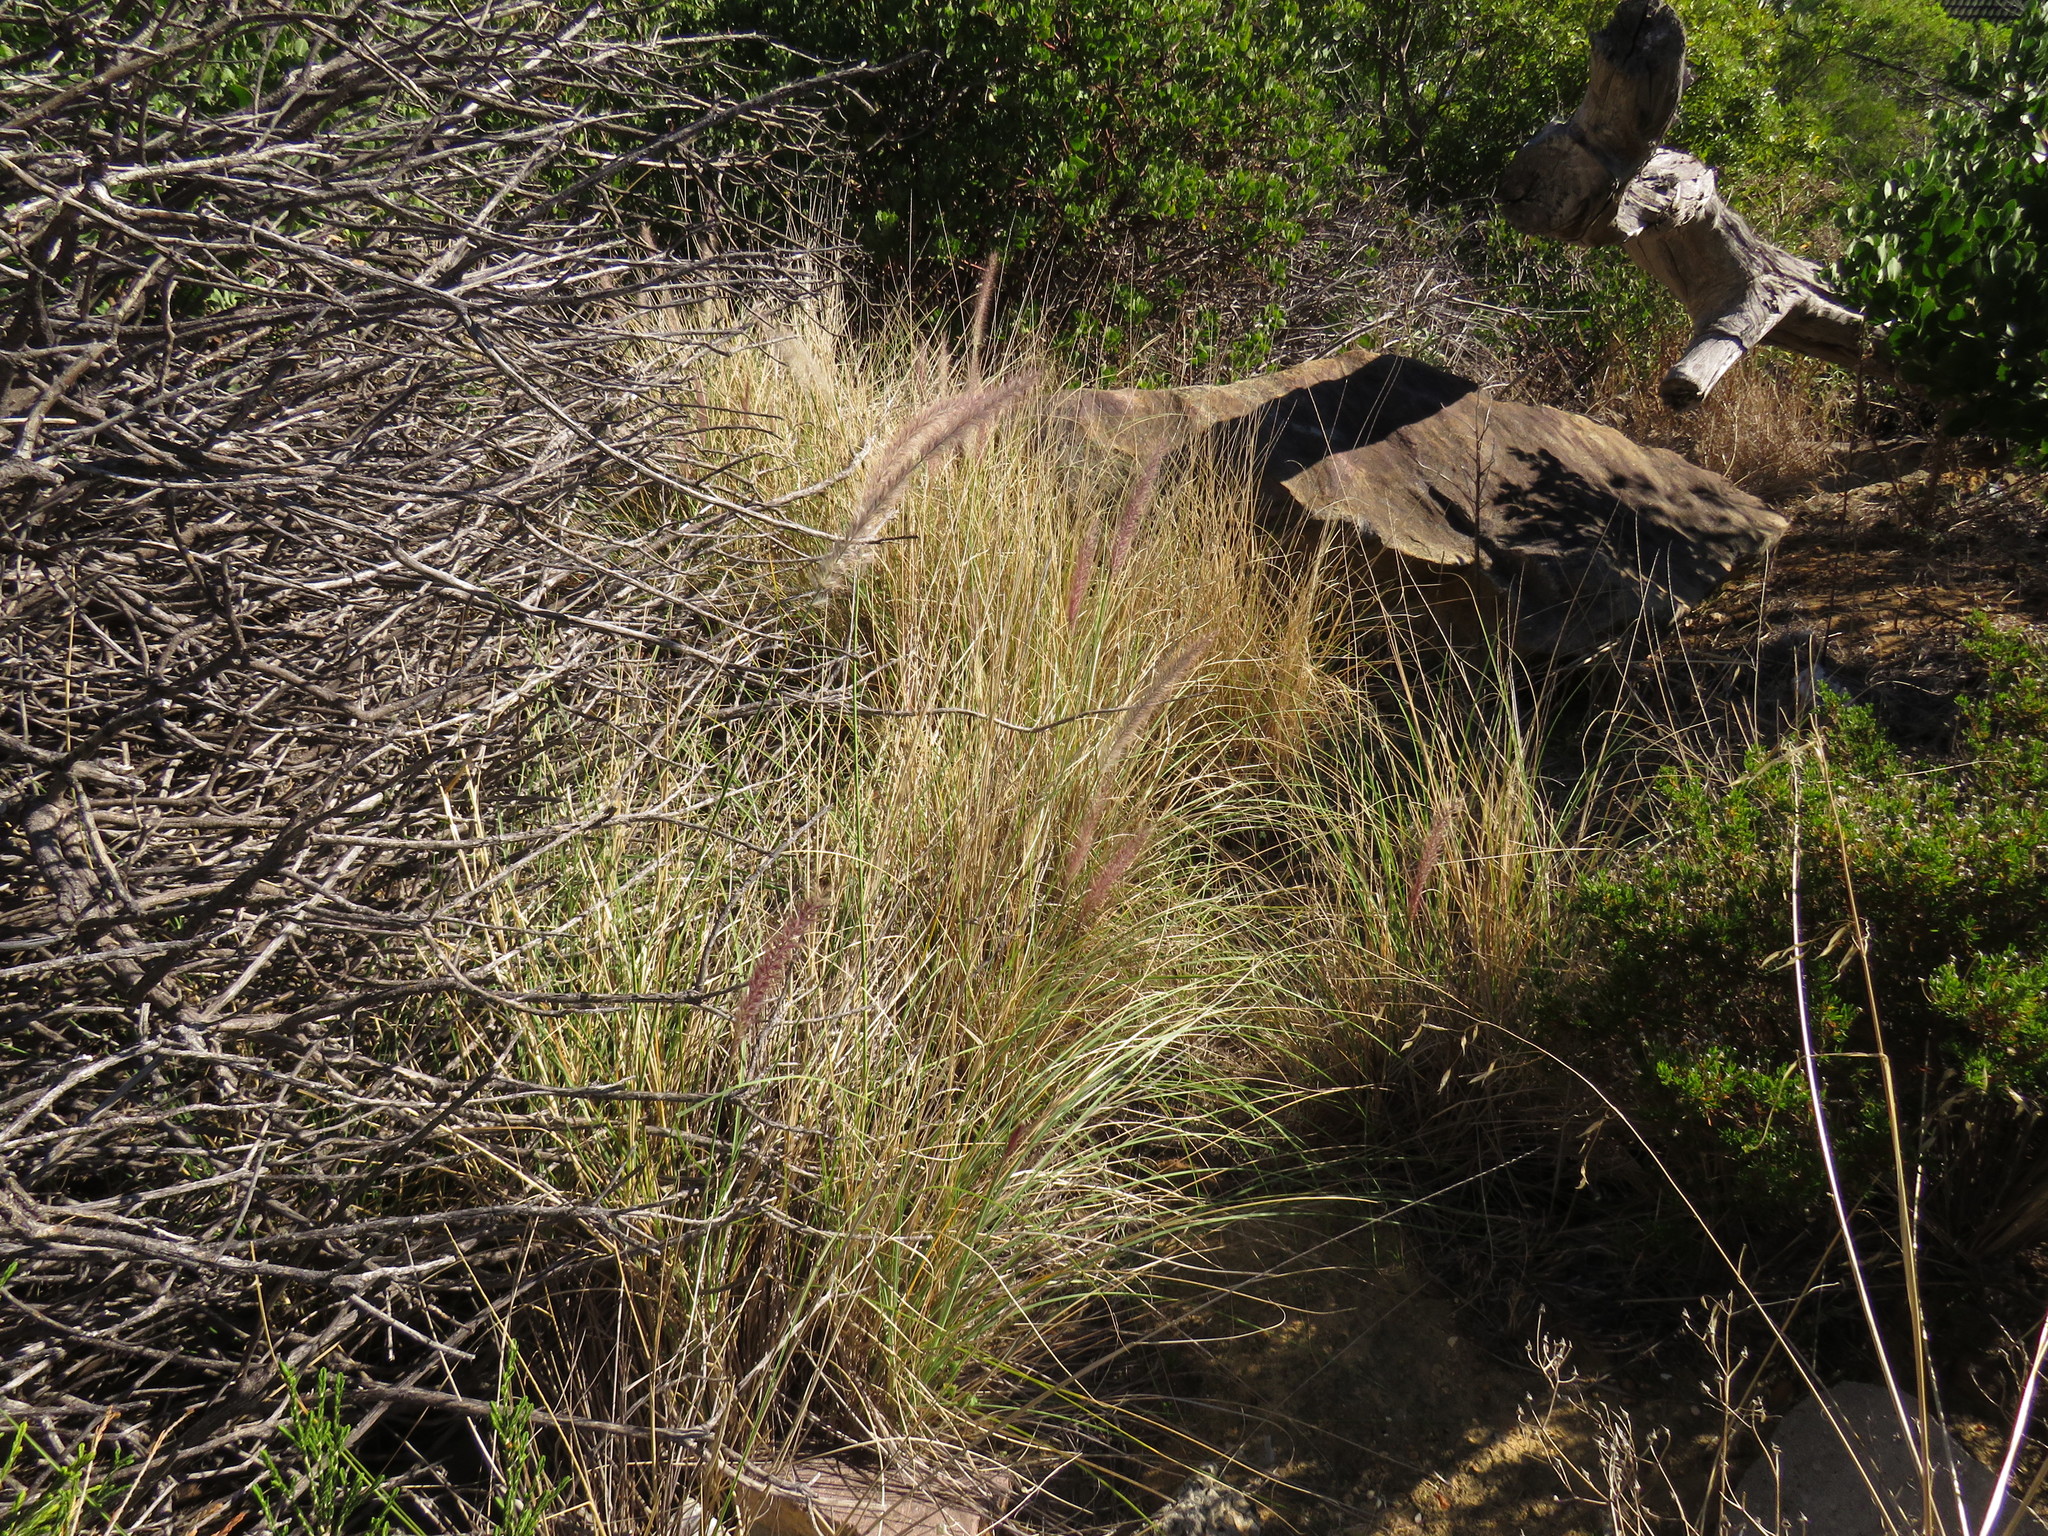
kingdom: Plantae
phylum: Tracheophyta
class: Liliopsida
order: Poales
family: Poaceae
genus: Cenchrus
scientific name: Cenchrus setaceus
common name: Crimson fountaingrass
